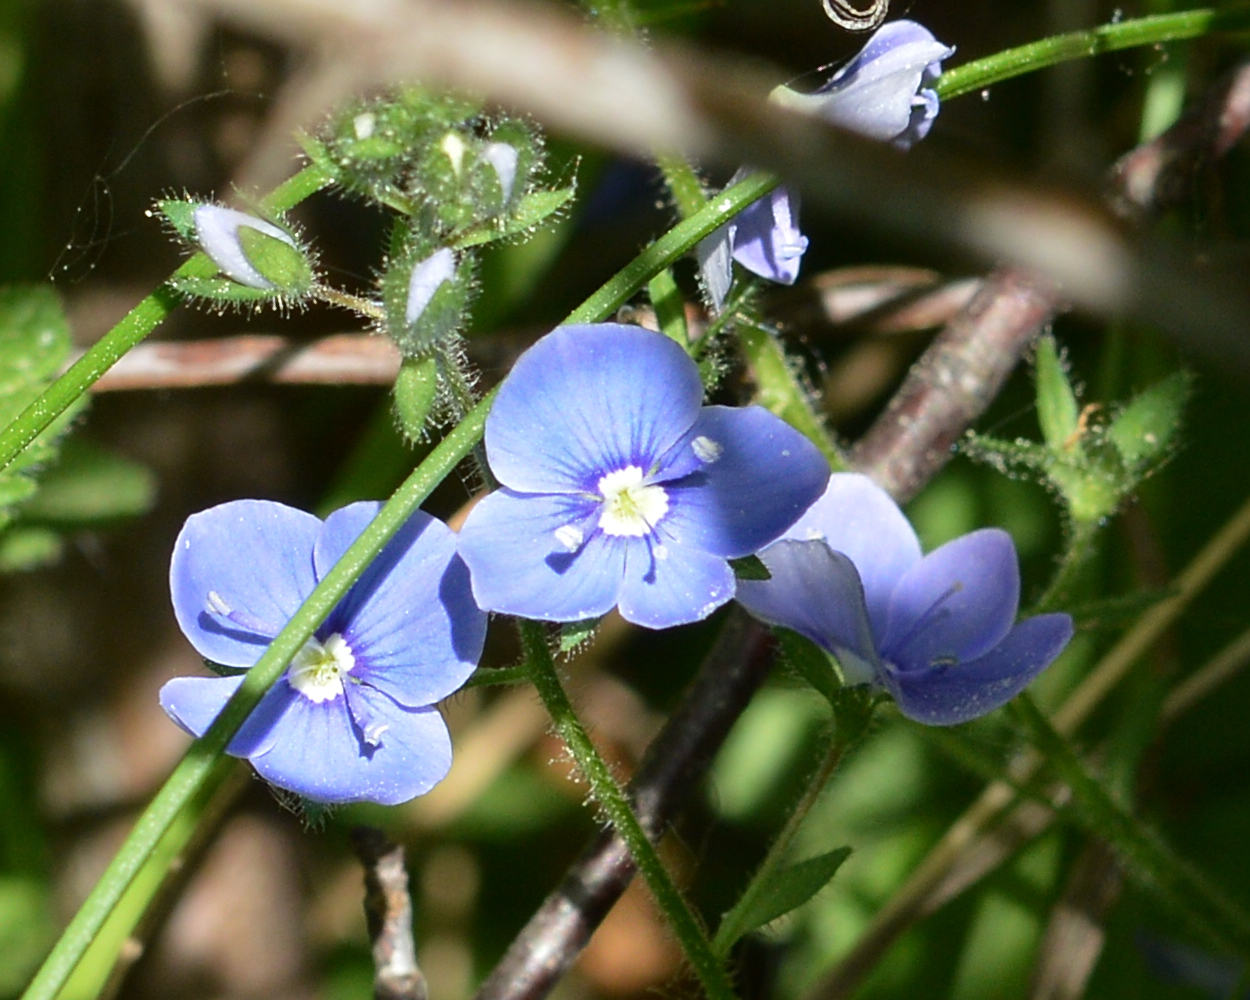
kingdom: Plantae
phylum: Tracheophyta
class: Magnoliopsida
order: Lamiales
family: Plantaginaceae
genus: Veronica
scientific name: Veronica chamaedrys
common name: Germander speedwell
